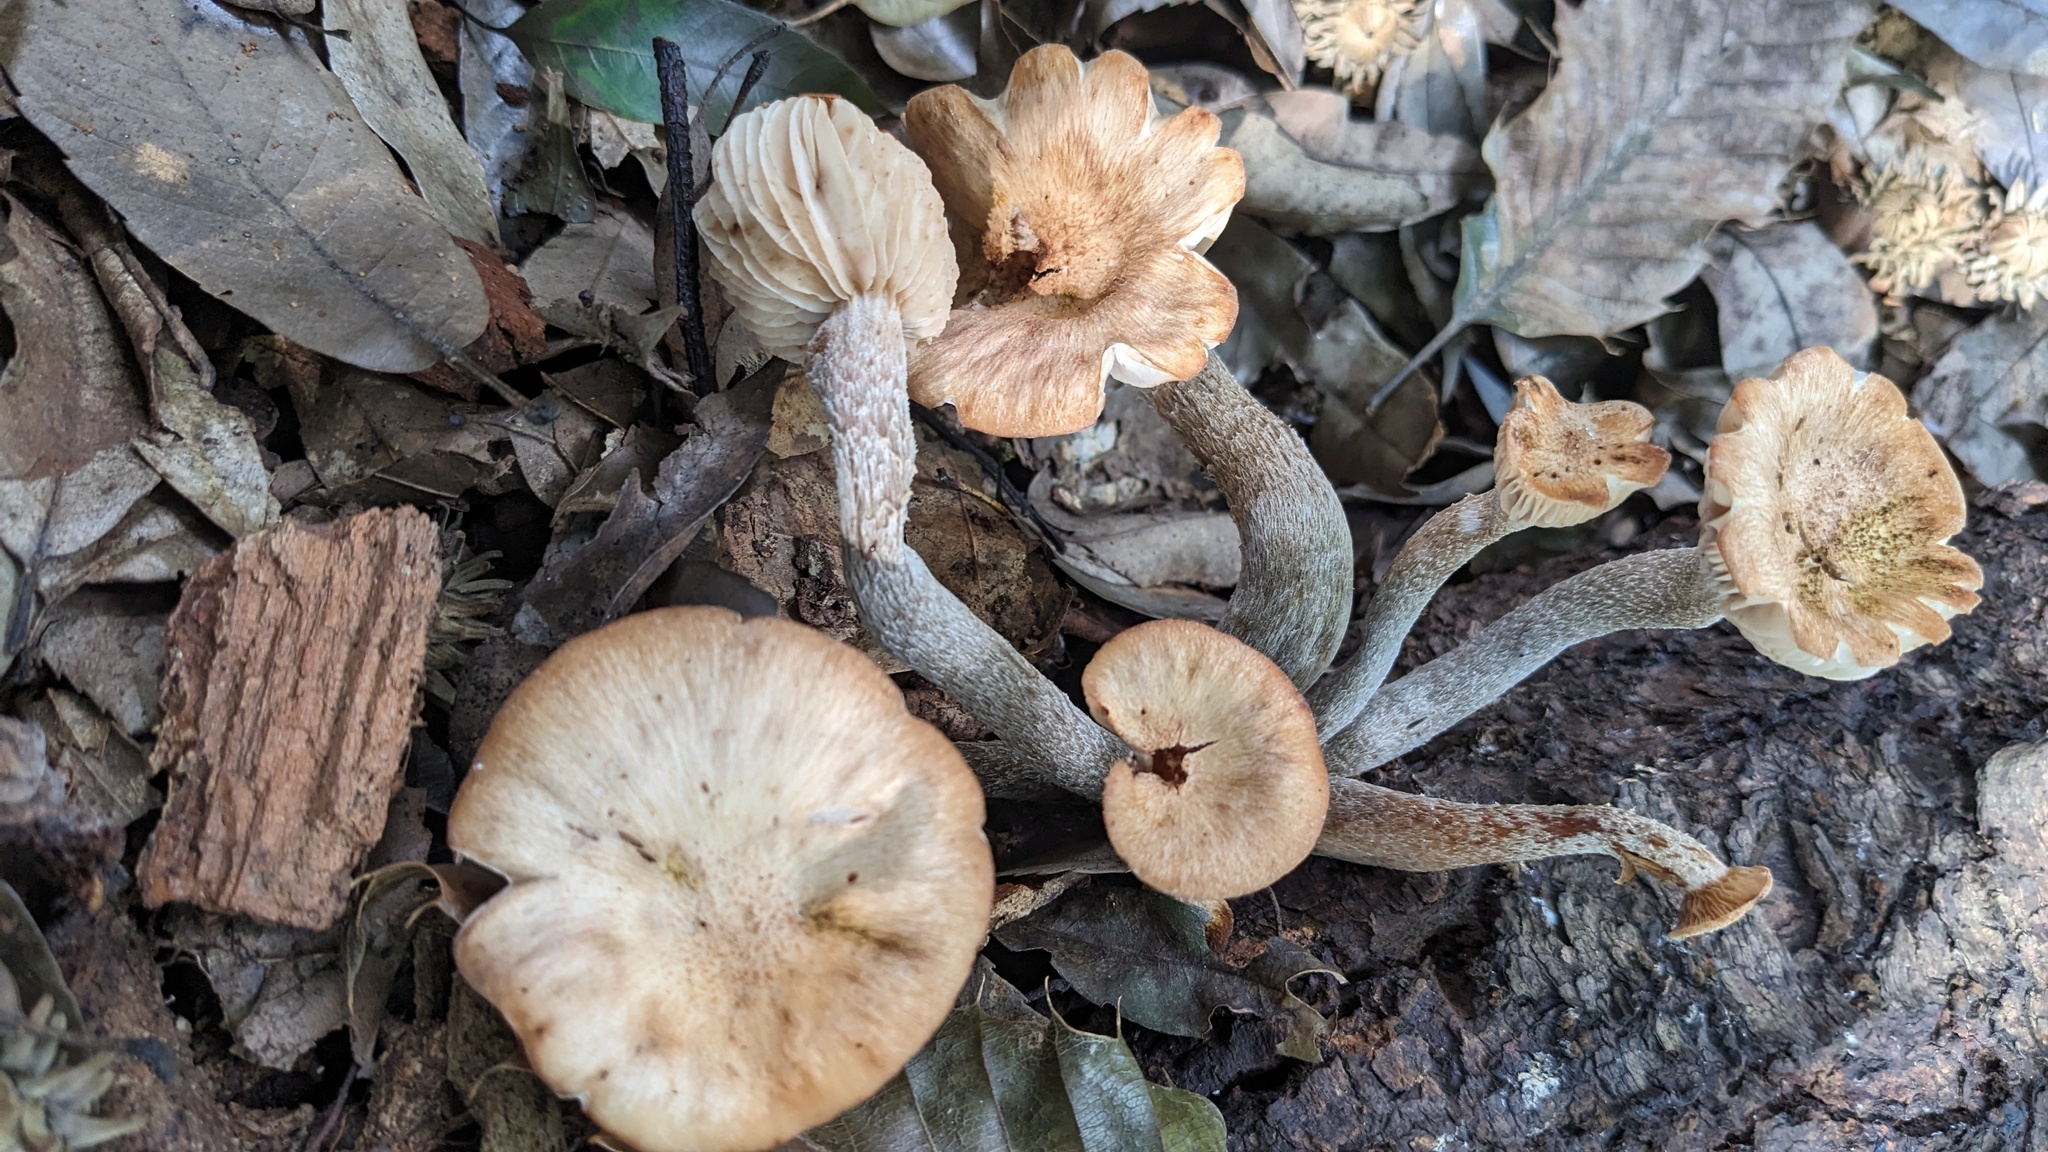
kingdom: Fungi
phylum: Basidiomycota
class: Agaricomycetes
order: Agaricales
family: Physalacriaceae
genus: Desarmillaria
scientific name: Desarmillaria tabescens
